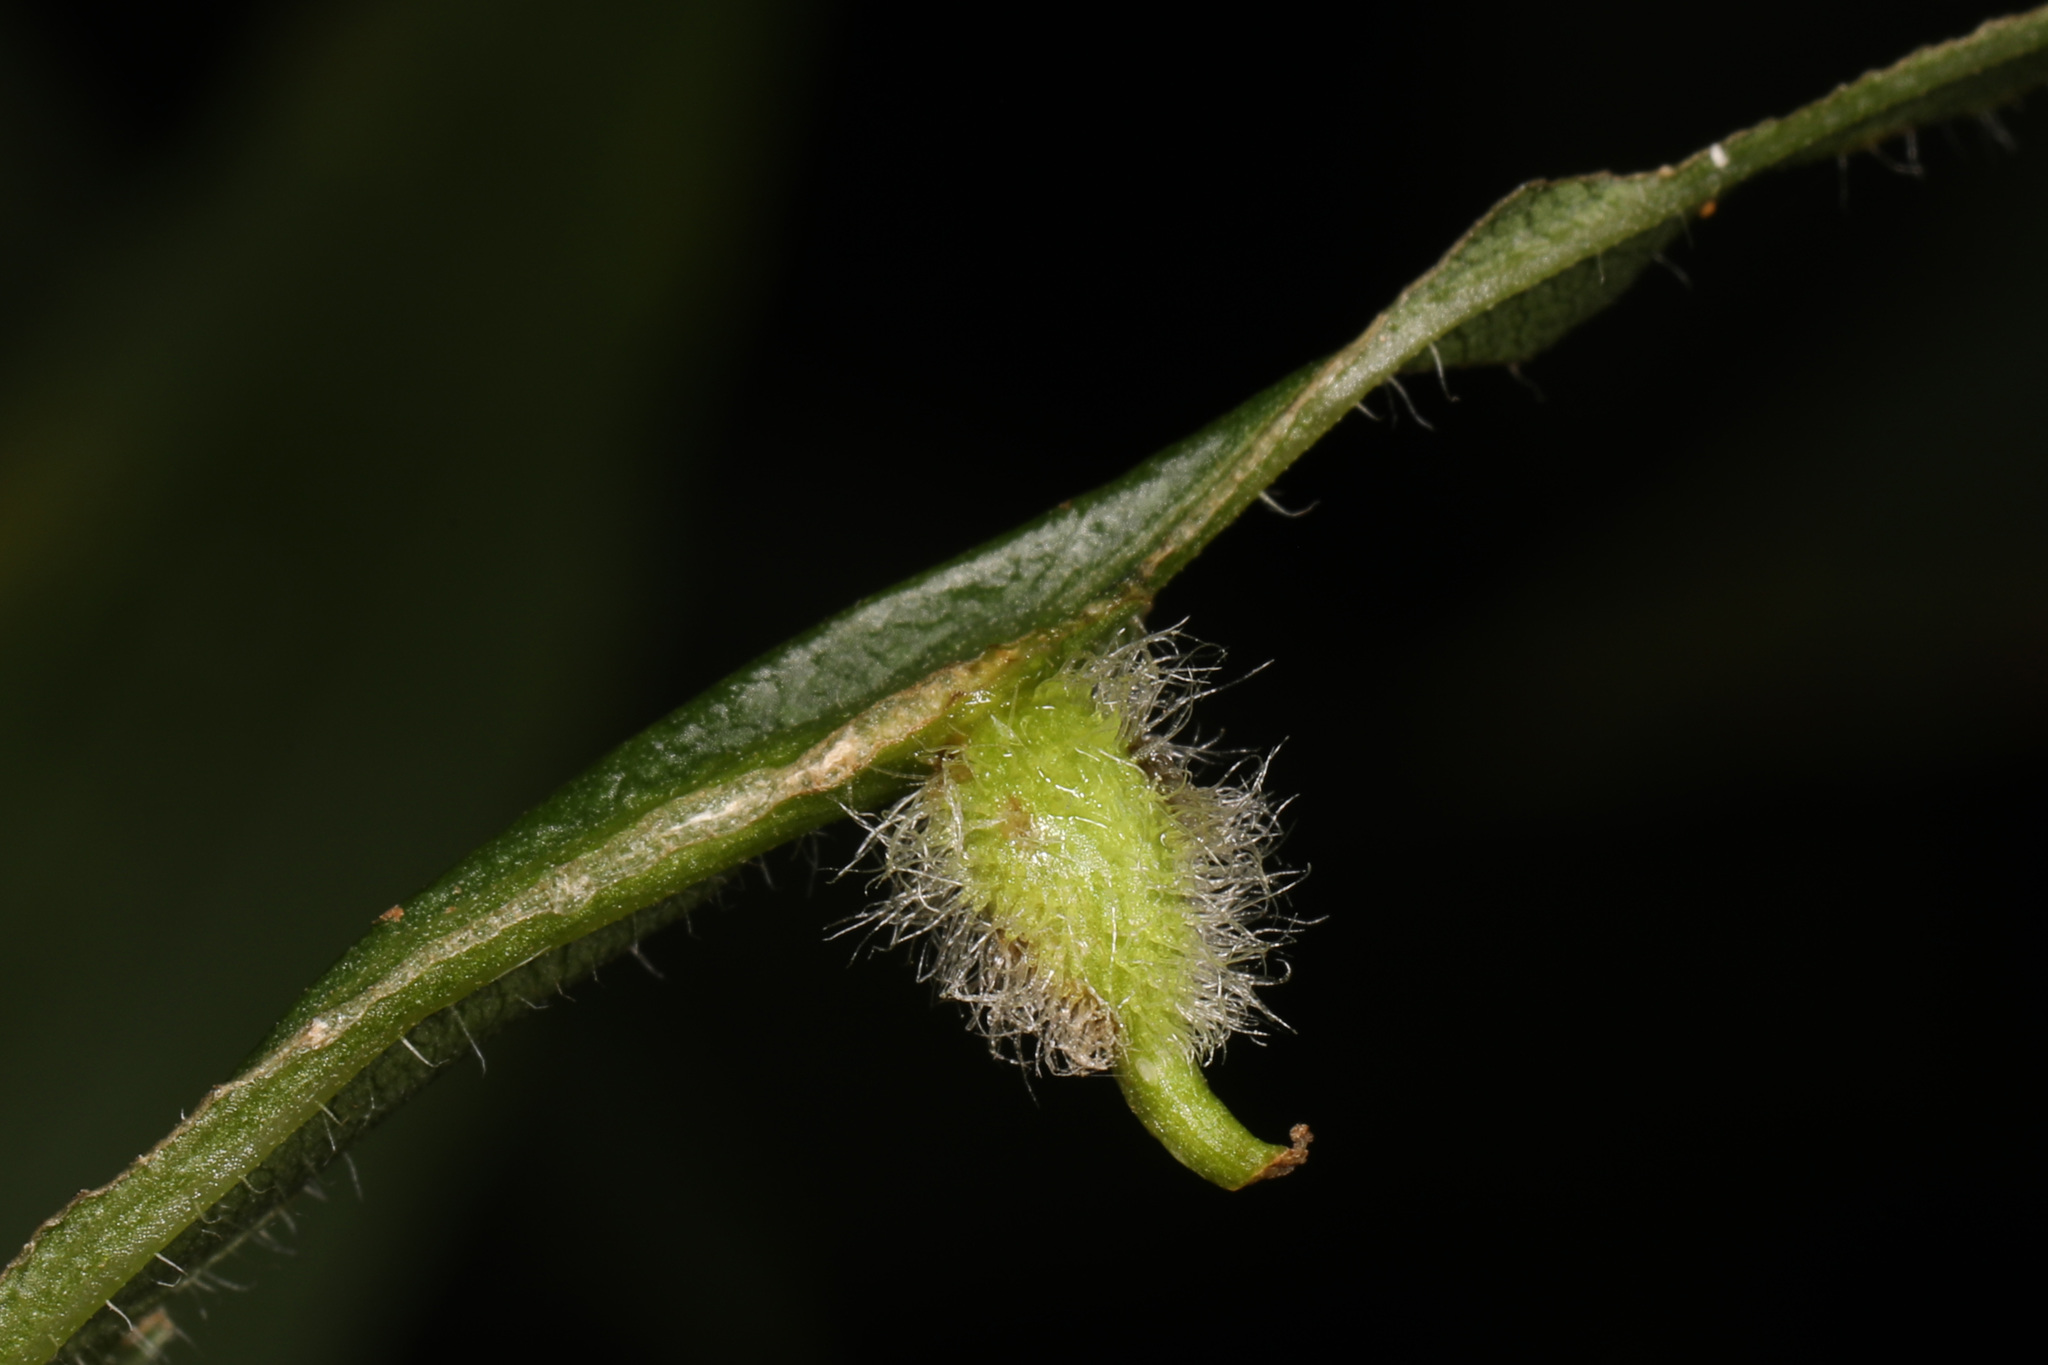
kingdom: Animalia
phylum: Arthropoda
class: Insecta
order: Diptera
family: Cecidomyiidae
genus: Rhopalomyia
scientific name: Rhopalomyia clarkei
